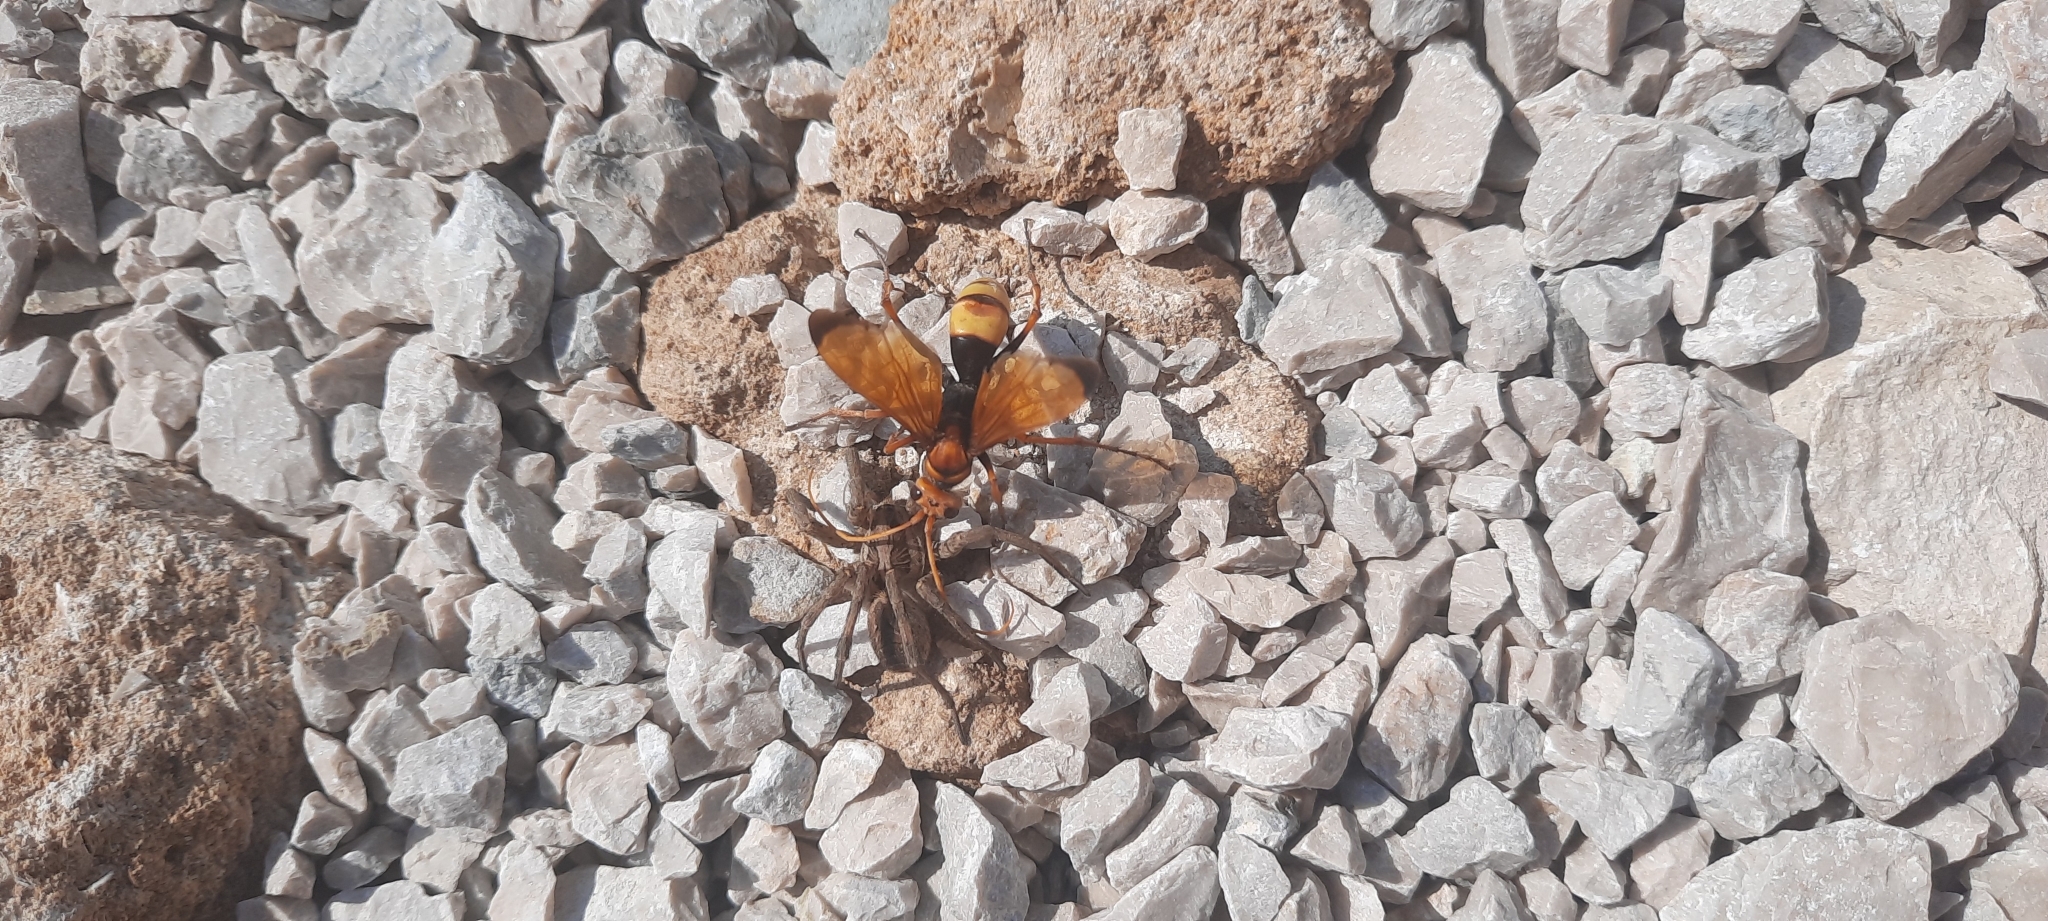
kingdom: Animalia
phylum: Arthropoda
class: Insecta
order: Hymenoptera
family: Pompilidae
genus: Cryptocheilus
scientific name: Cryptocheilus alternatus
